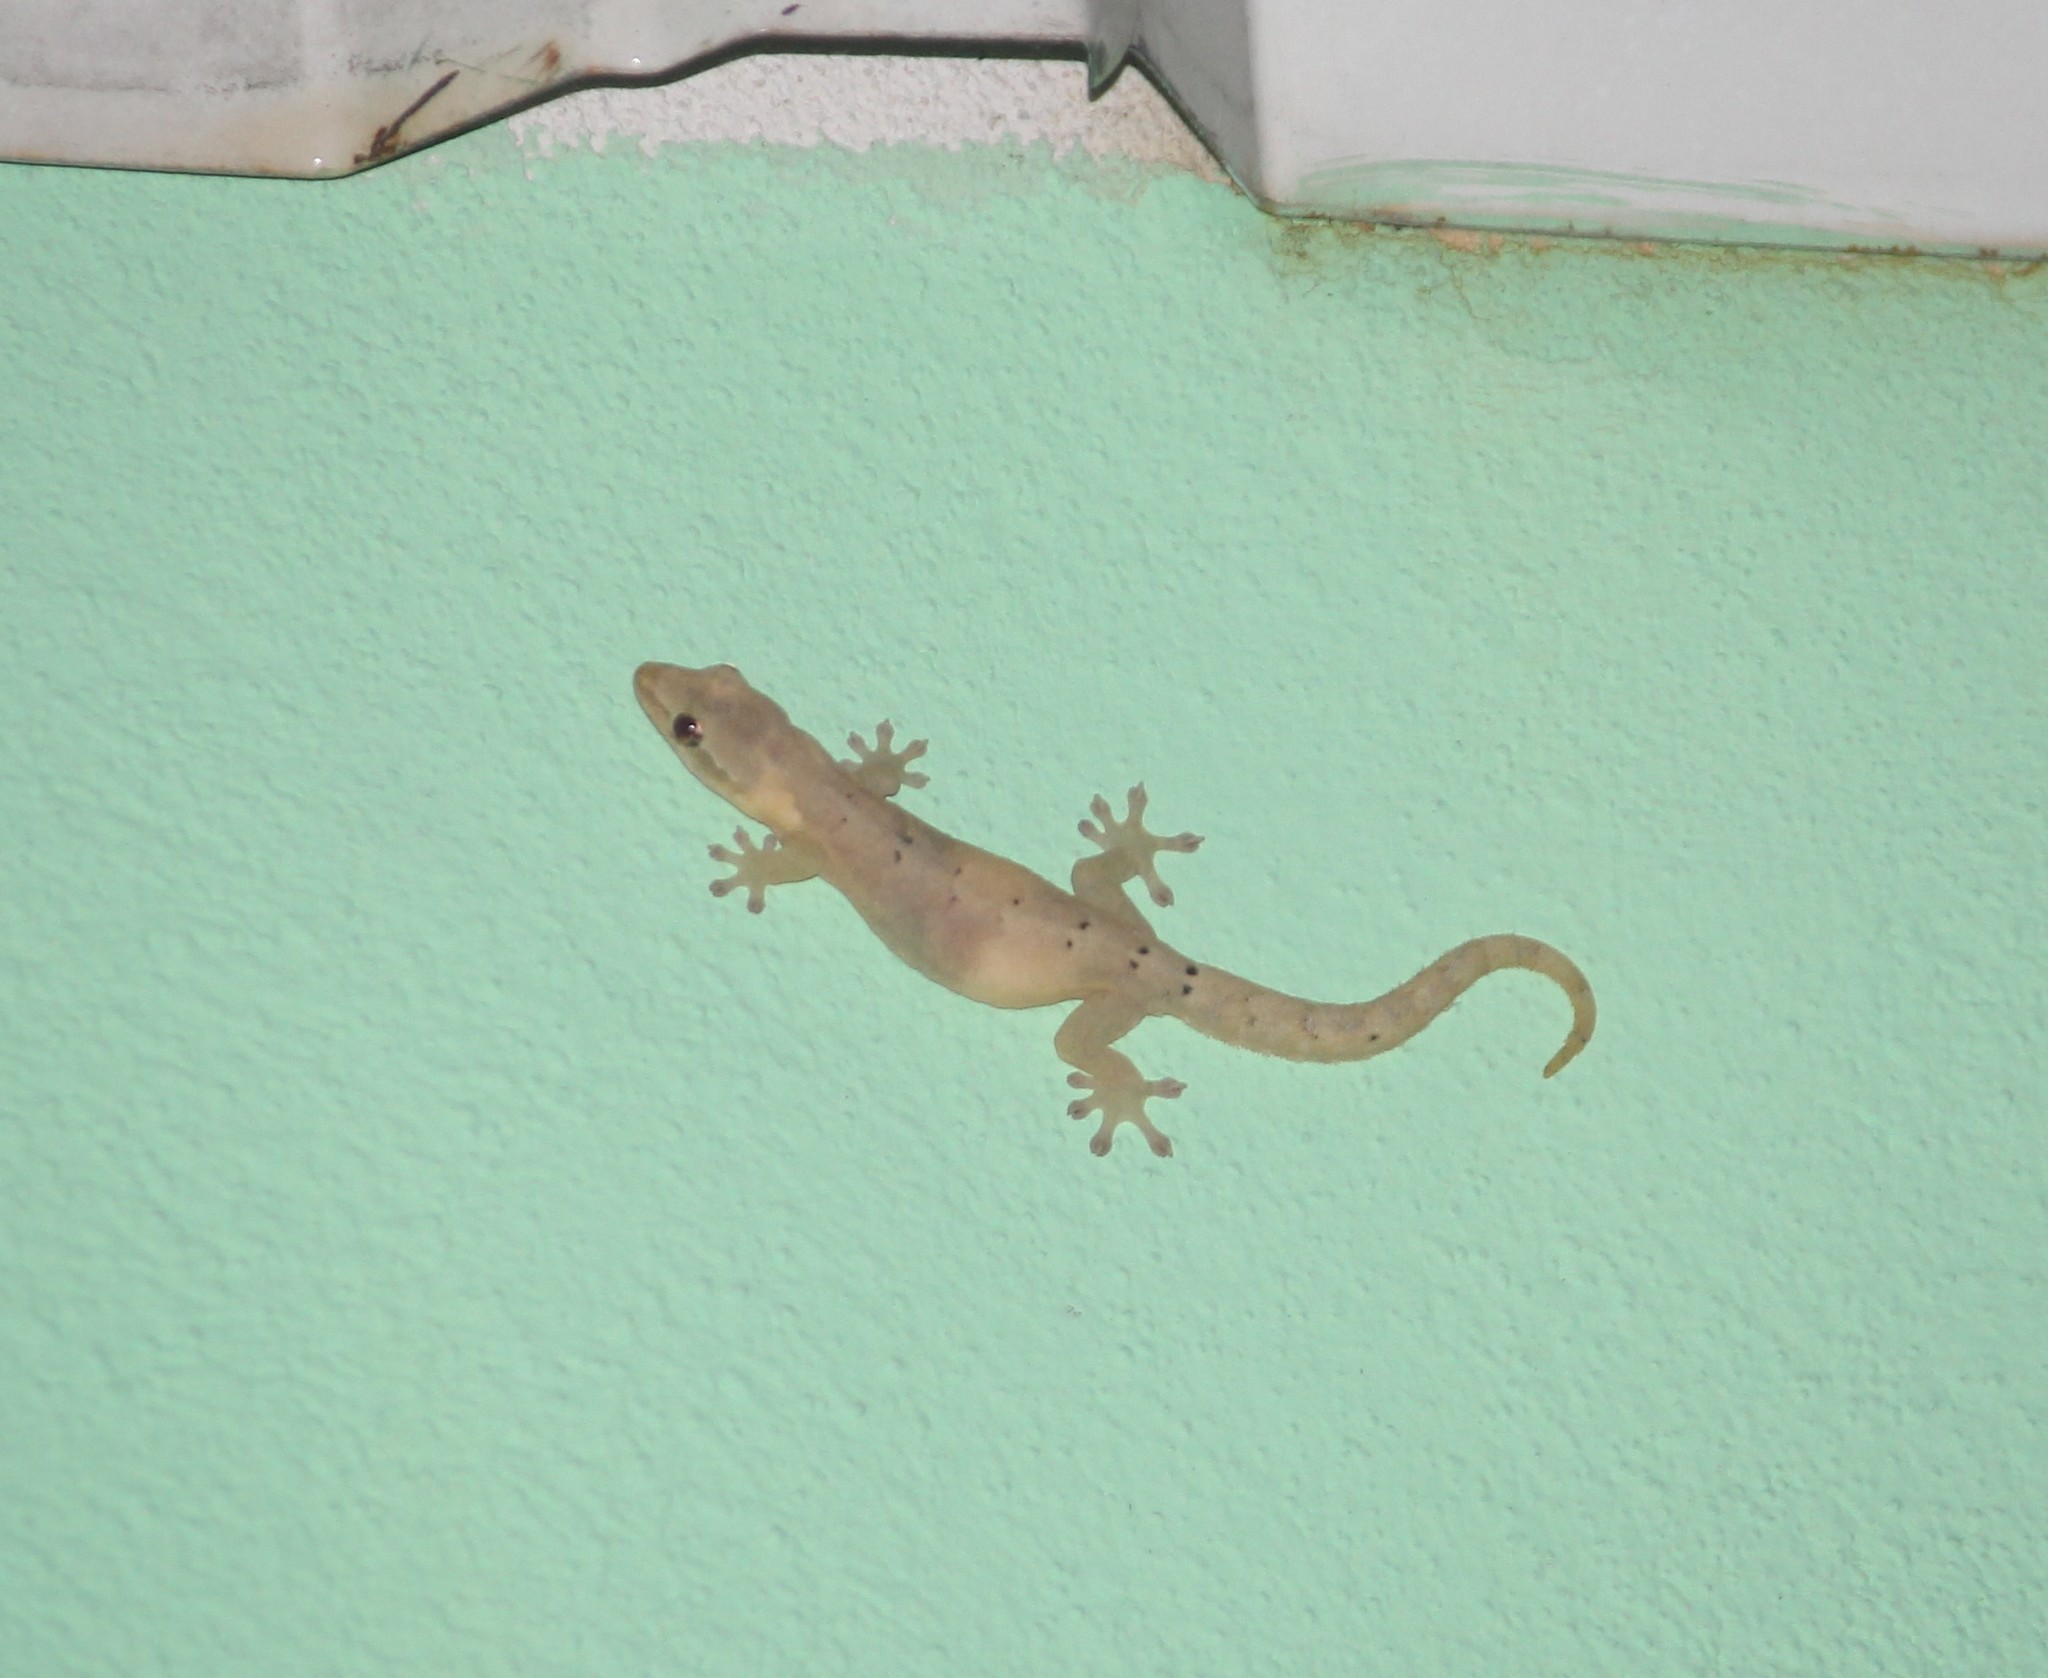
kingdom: Animalia
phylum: Chordata
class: Squamata
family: Gekkonidae
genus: Lepidodactylus
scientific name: Lepidodactylus lugubris
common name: Mourning gecko
